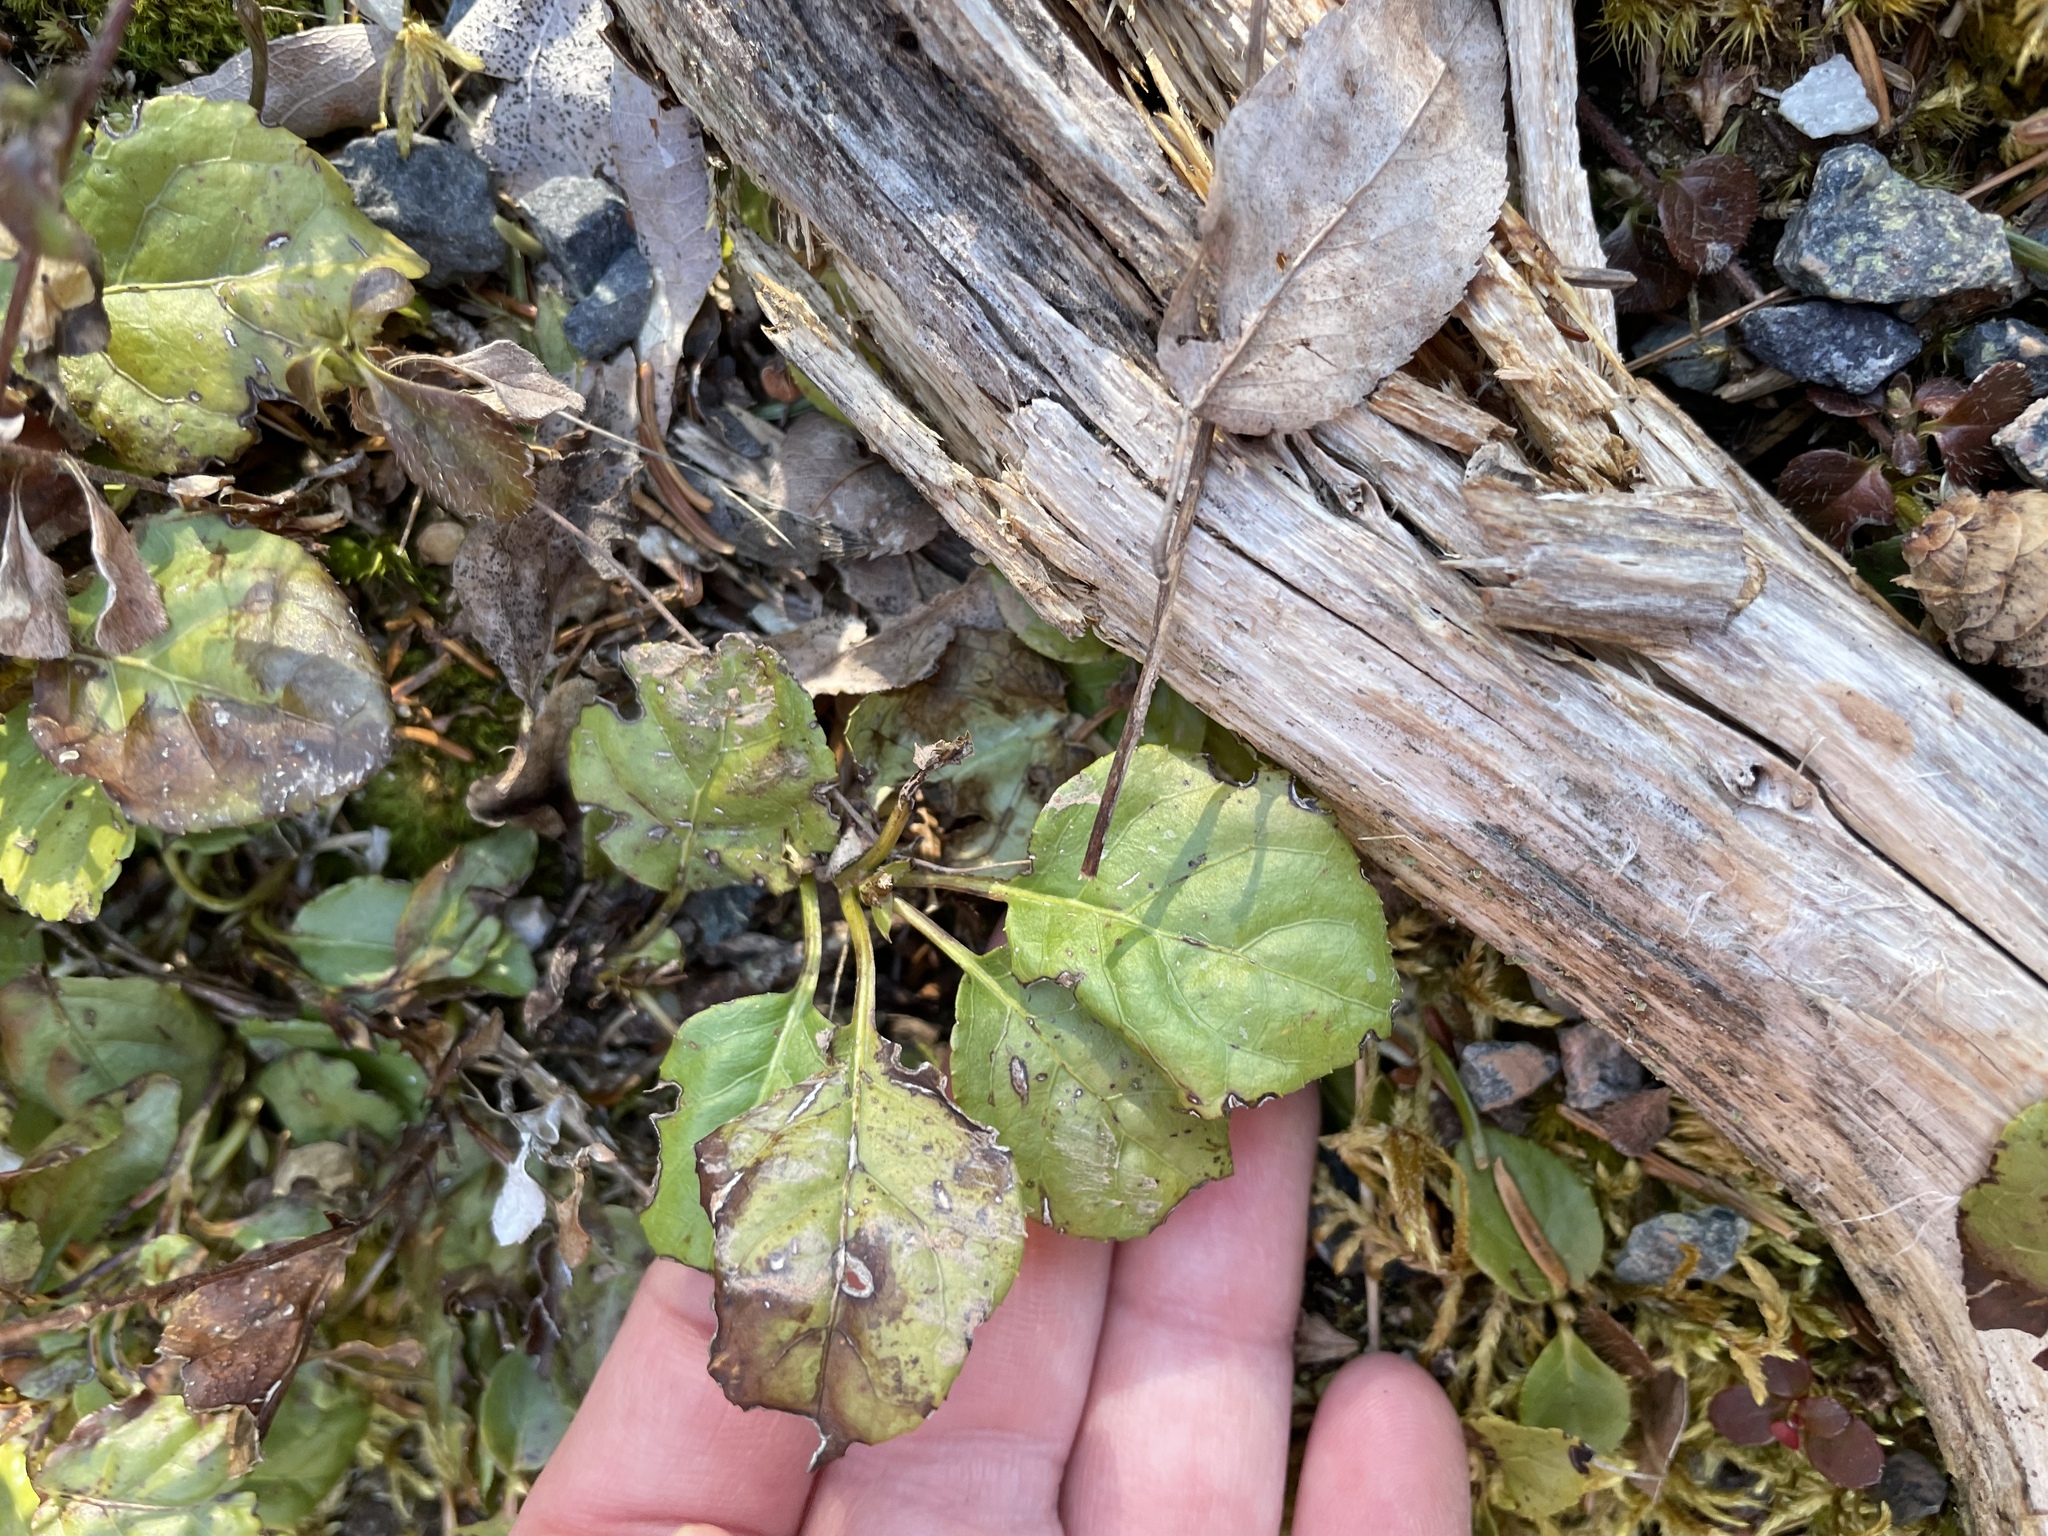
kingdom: Plantae
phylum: Tracheophyta
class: Magnoliopsida
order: Ericales
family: Ericaceae
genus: Orthilia
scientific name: Orthilia secunda
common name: One-sided orthilia
